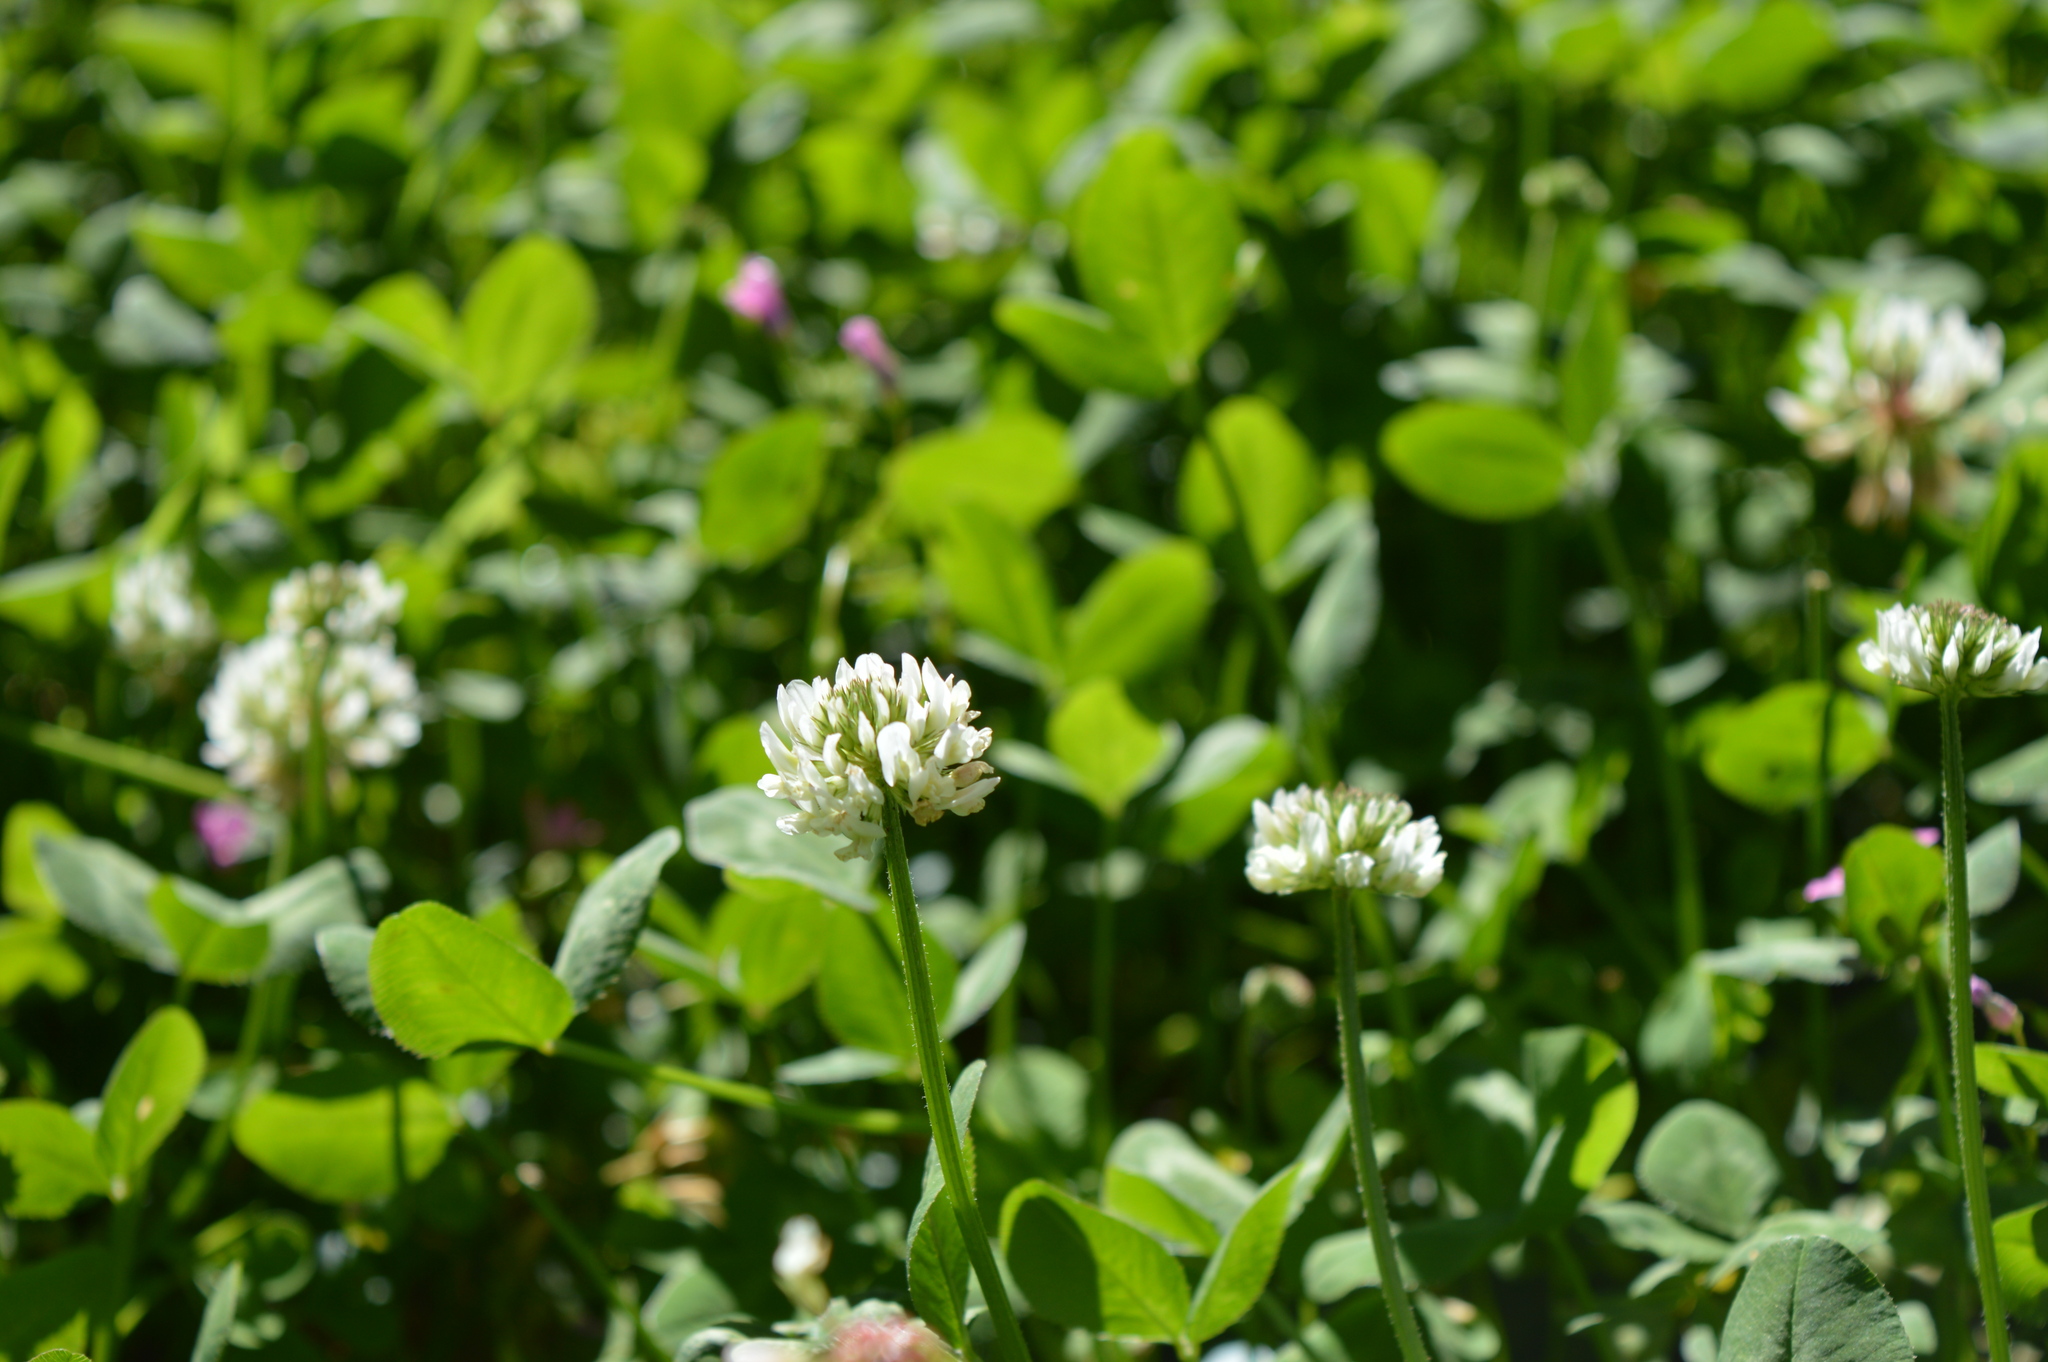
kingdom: Plantae
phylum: Tracheophyta
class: Magnoliopsida
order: Fabales
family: Fabaceae
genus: Trifolium
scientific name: Trifolium repens
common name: White clover
